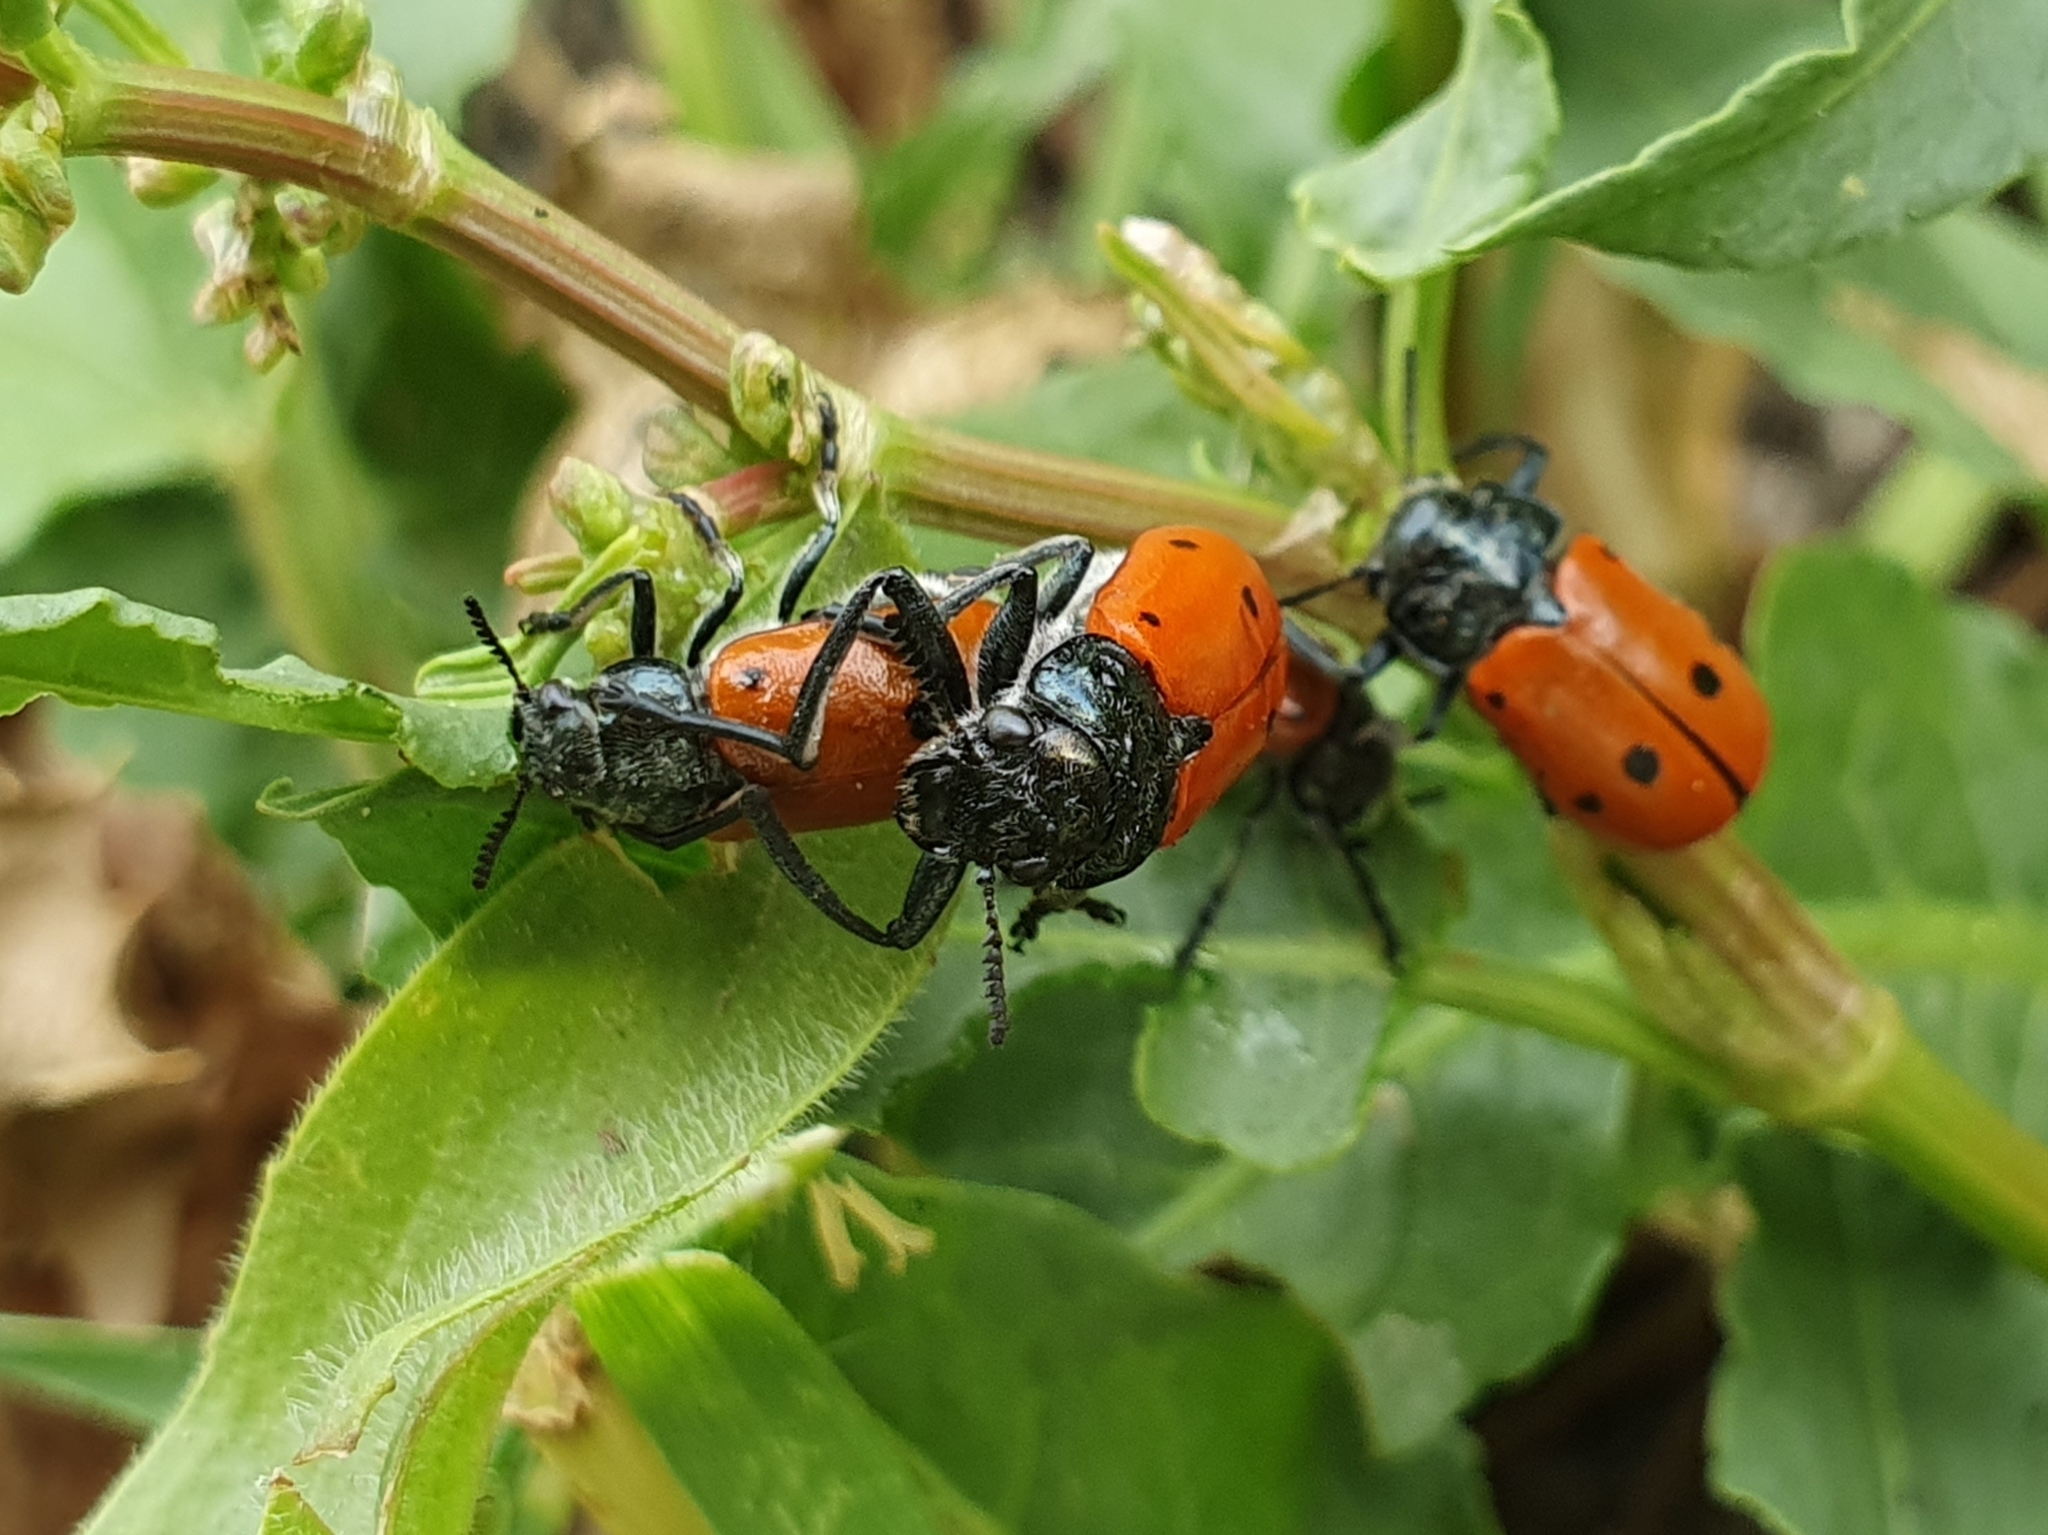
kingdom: Animalia
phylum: Arthropoda
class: Insecta
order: Coleoptera
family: Chrysomelidae
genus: Lachnaia
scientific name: Lachnaia paradoxa
